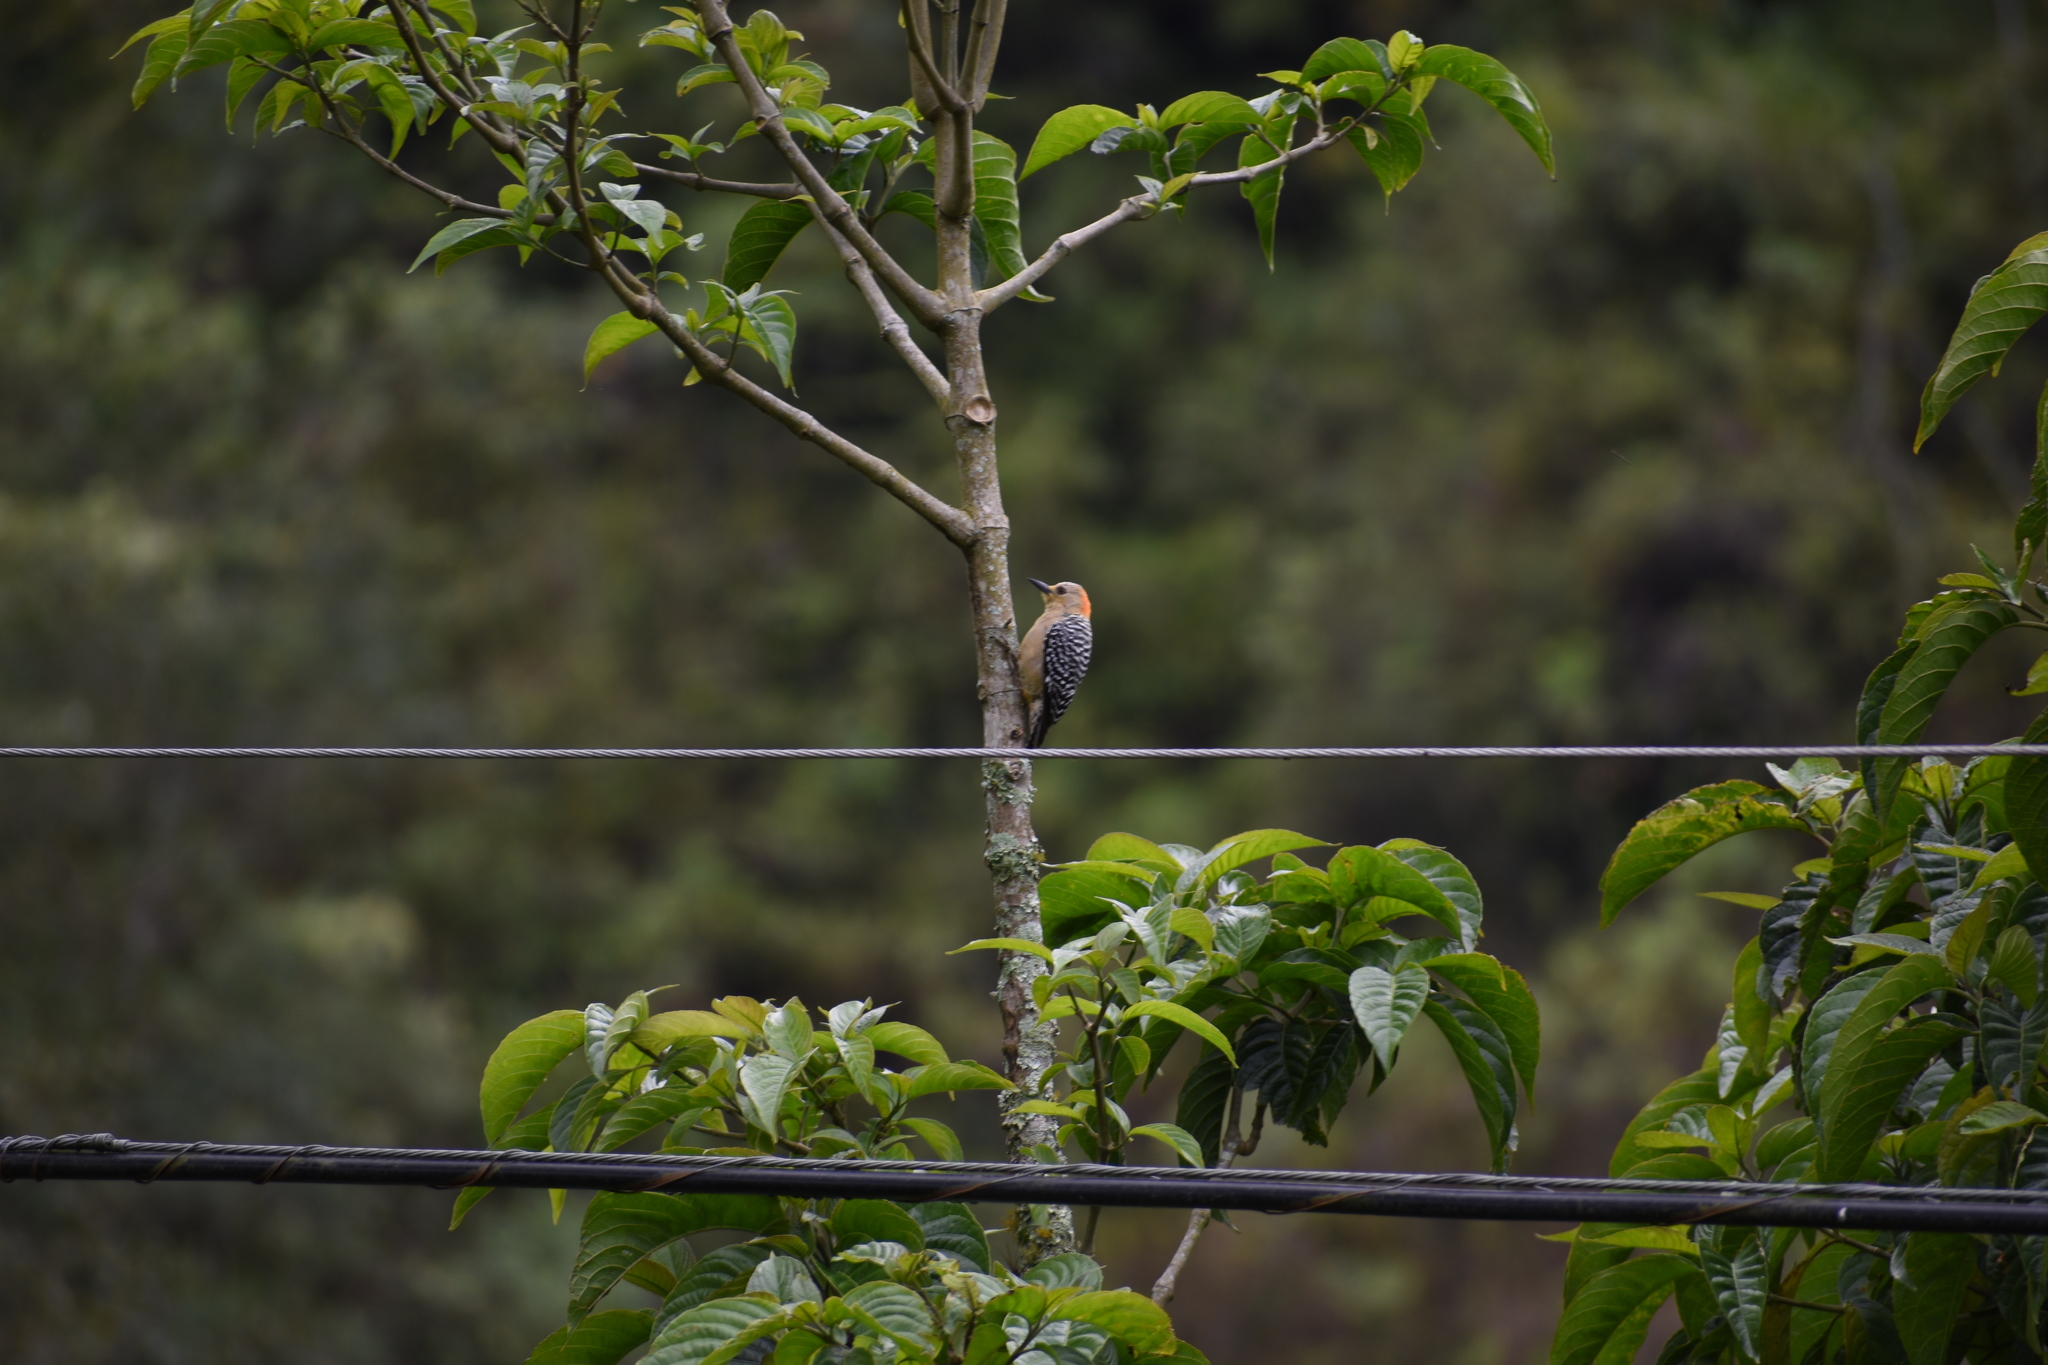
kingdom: Animalia
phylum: Chordata
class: Aves
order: Piciformes
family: Picidae
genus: Melanerpes
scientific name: Melanerpes rubricapillus
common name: Red-crowned woodpecker
